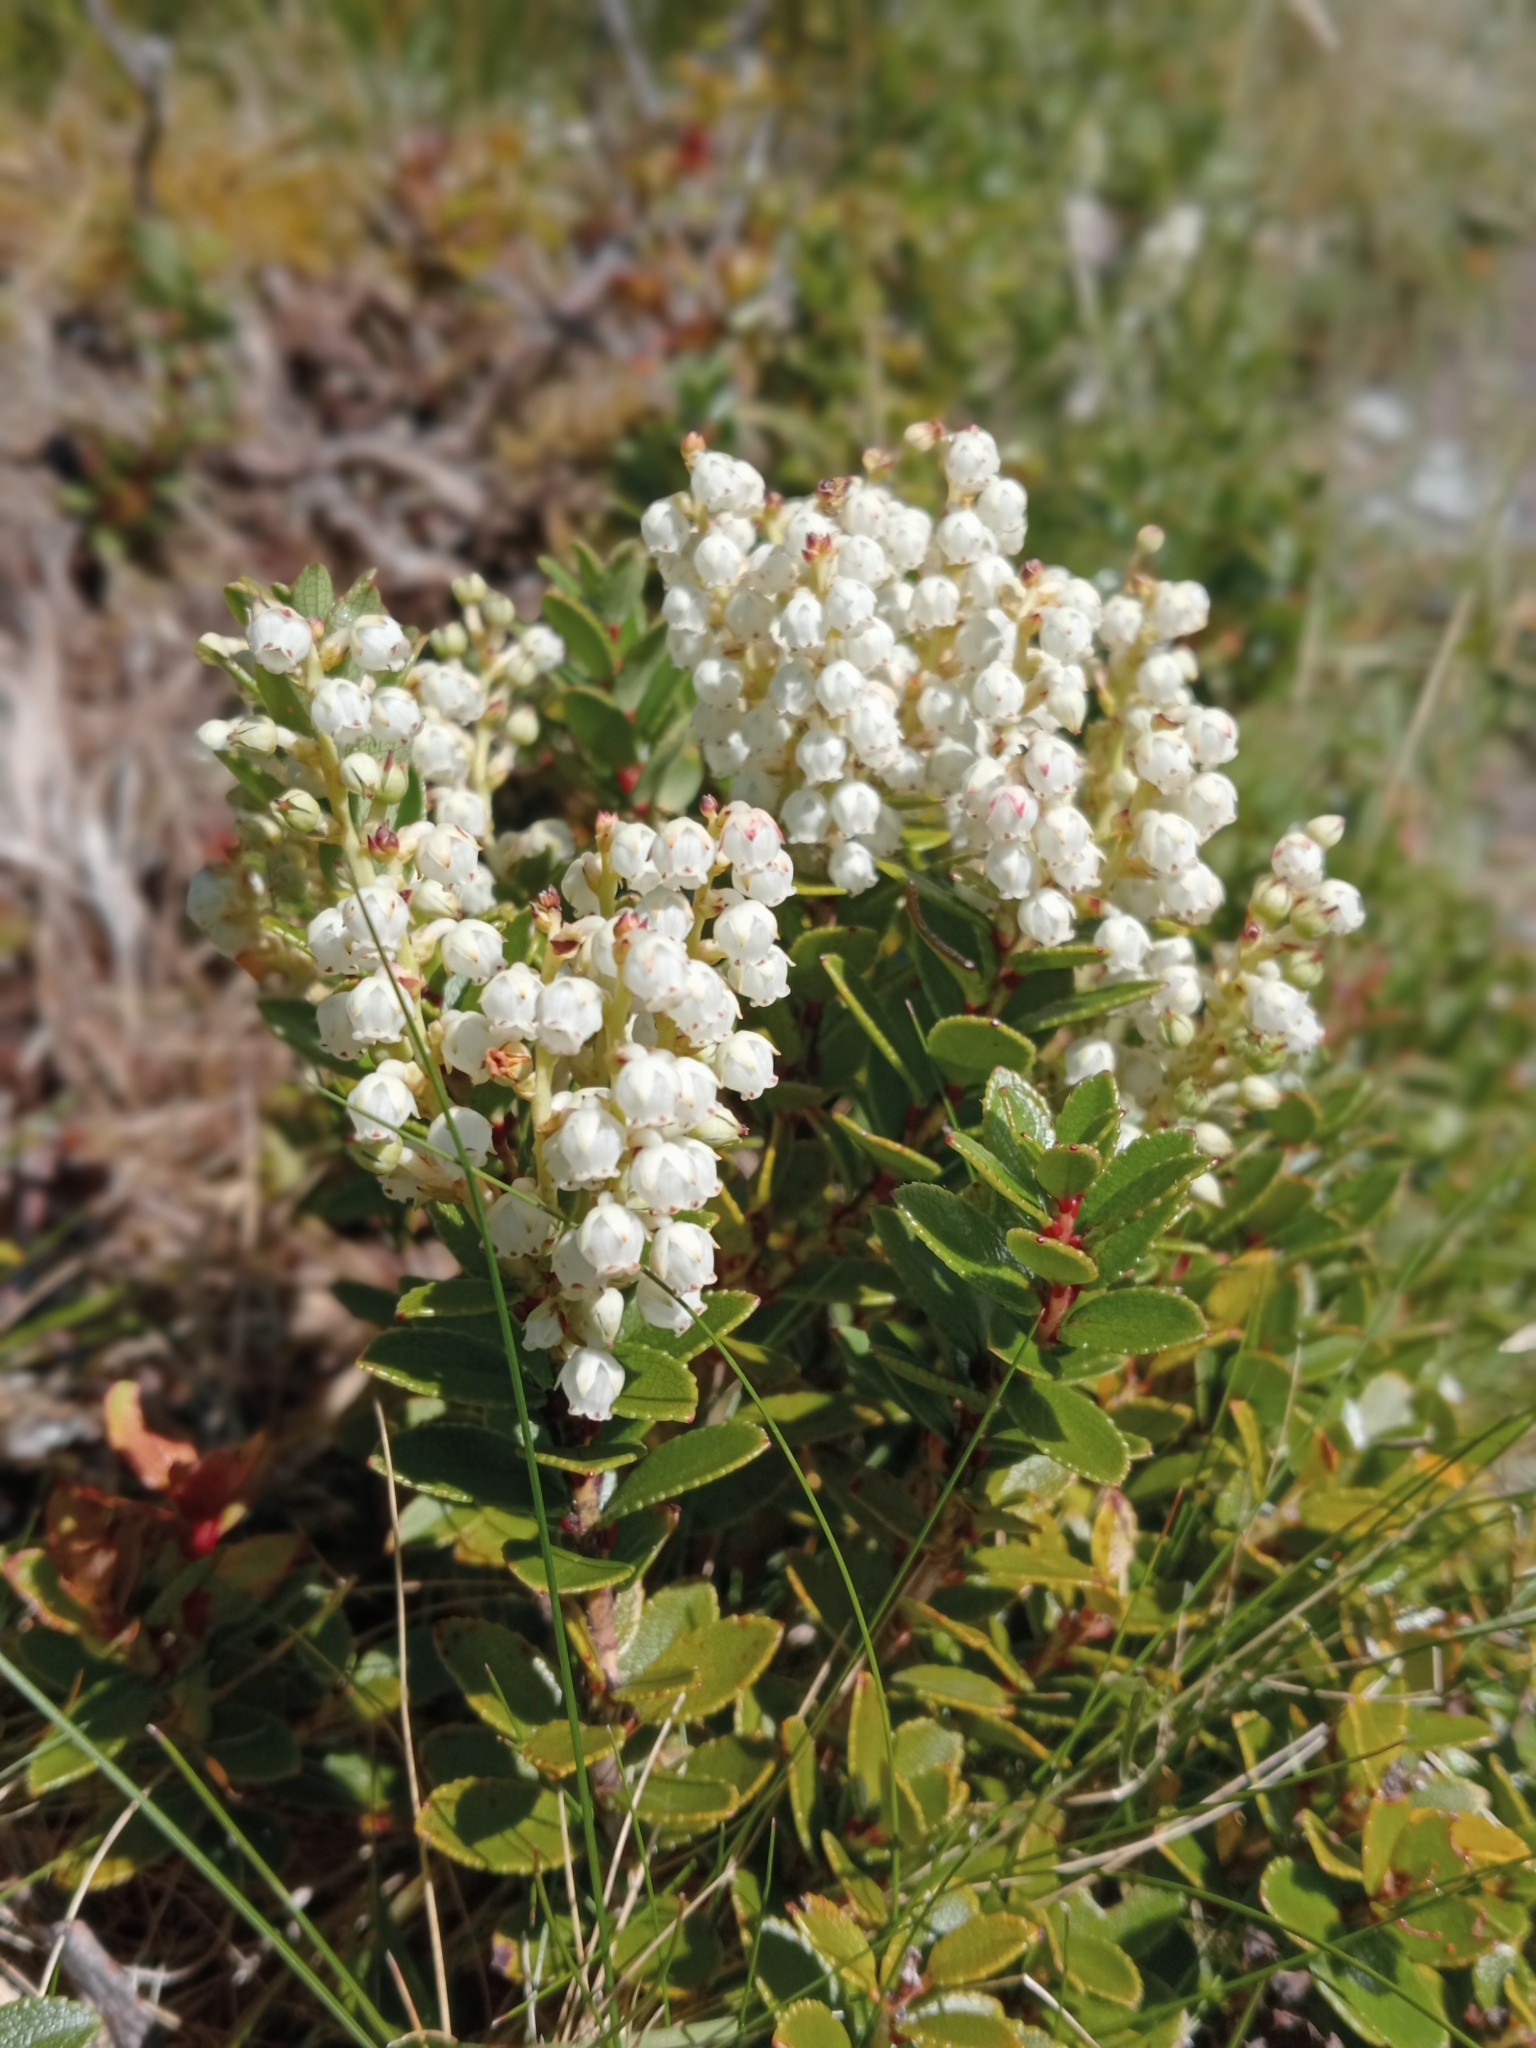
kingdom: Plantae
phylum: Tracheophyta
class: Magnoliopsida
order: Ericales
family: Ericaceae
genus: Gaultheria
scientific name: Gaultheria crassa
